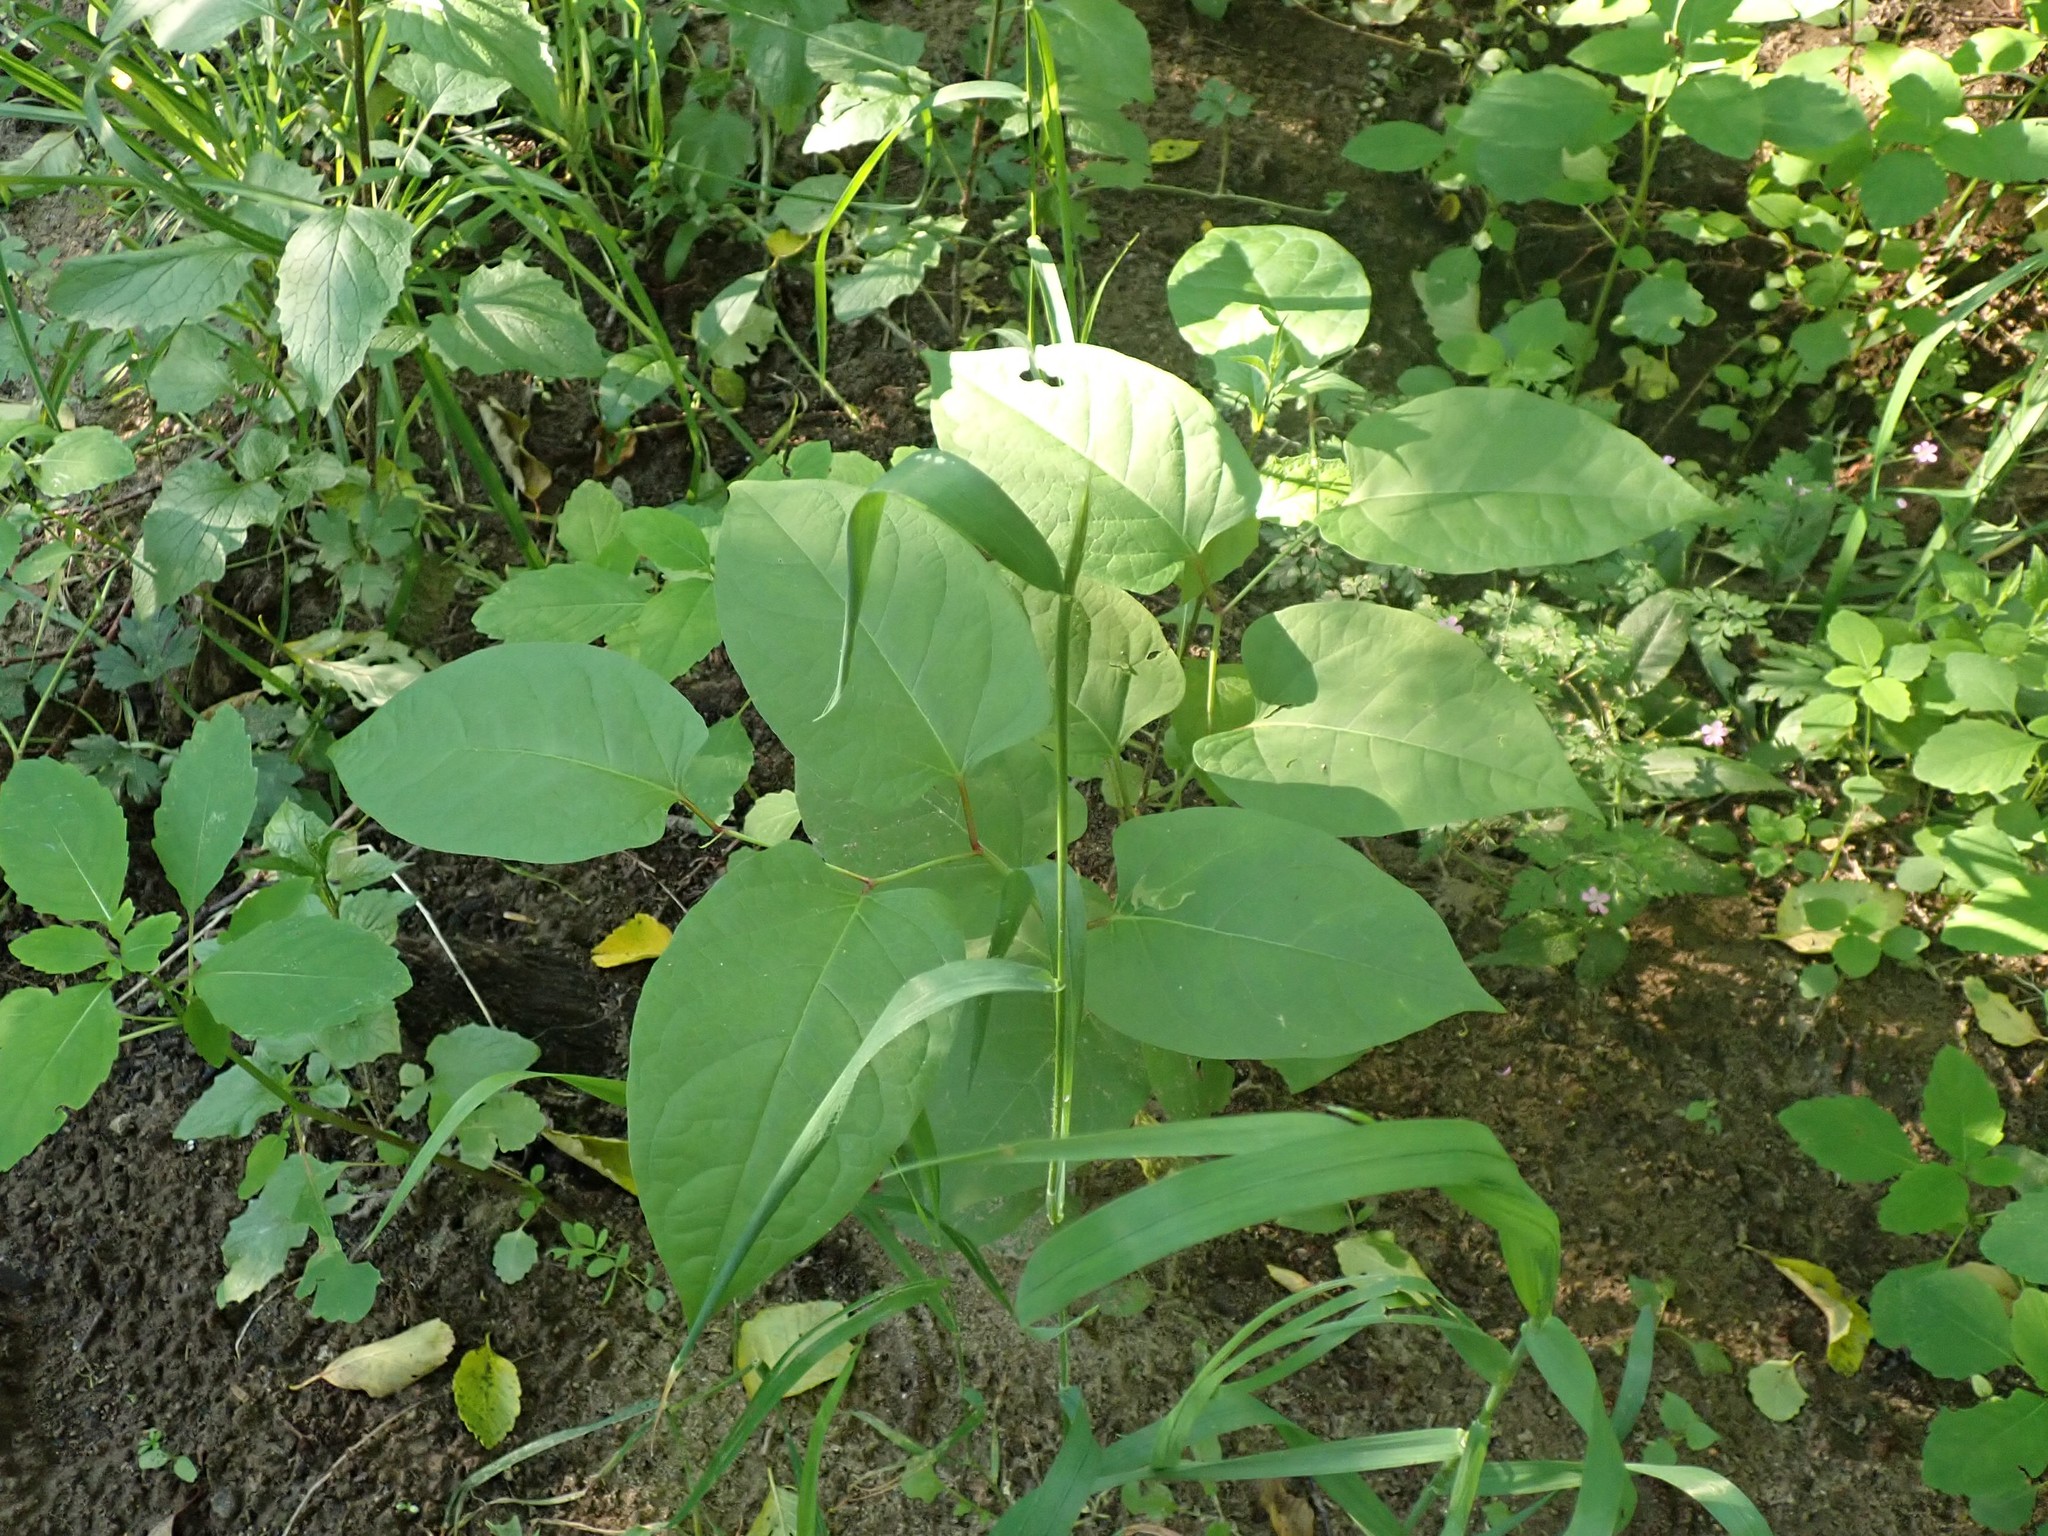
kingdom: Plantae
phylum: Tracheophyta
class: Magnoliopsida
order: Caryophyllales
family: Polygonaceae
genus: Reynoutria
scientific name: Reynoutria bohemica
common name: Bohemian knotweed
